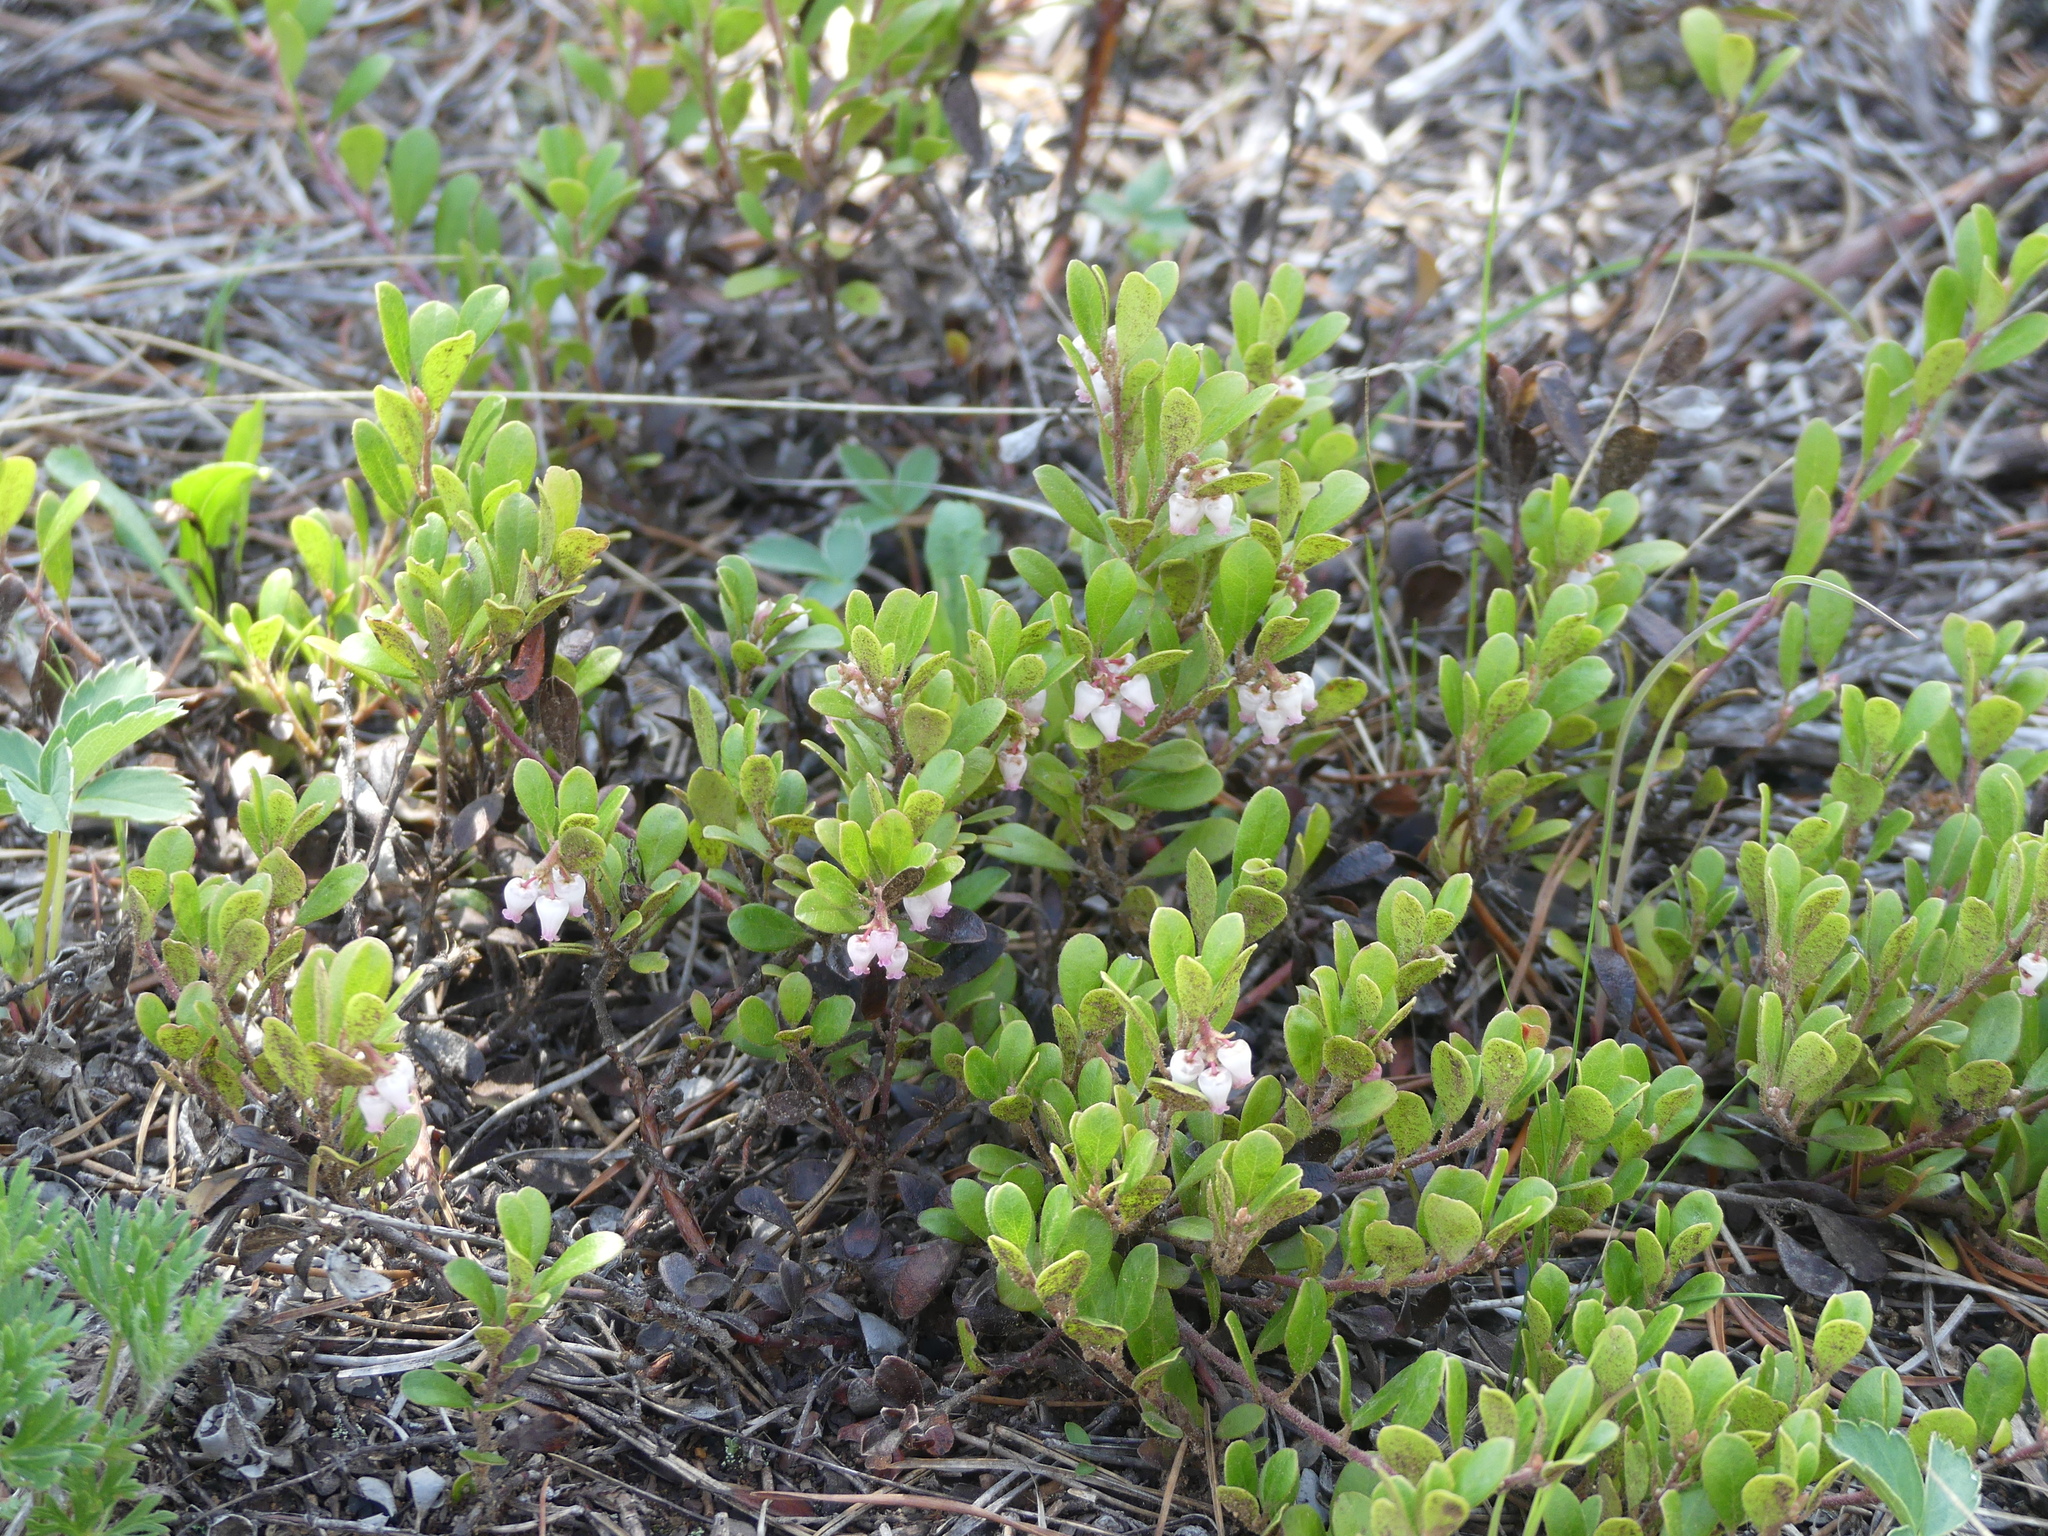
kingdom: Plantae
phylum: Tracheophyta
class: Magnoliopsida
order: Ericales
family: Ericaceae
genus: Arctostaphylos
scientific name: Arctostaphylos uva-ursi
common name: Bearberry
